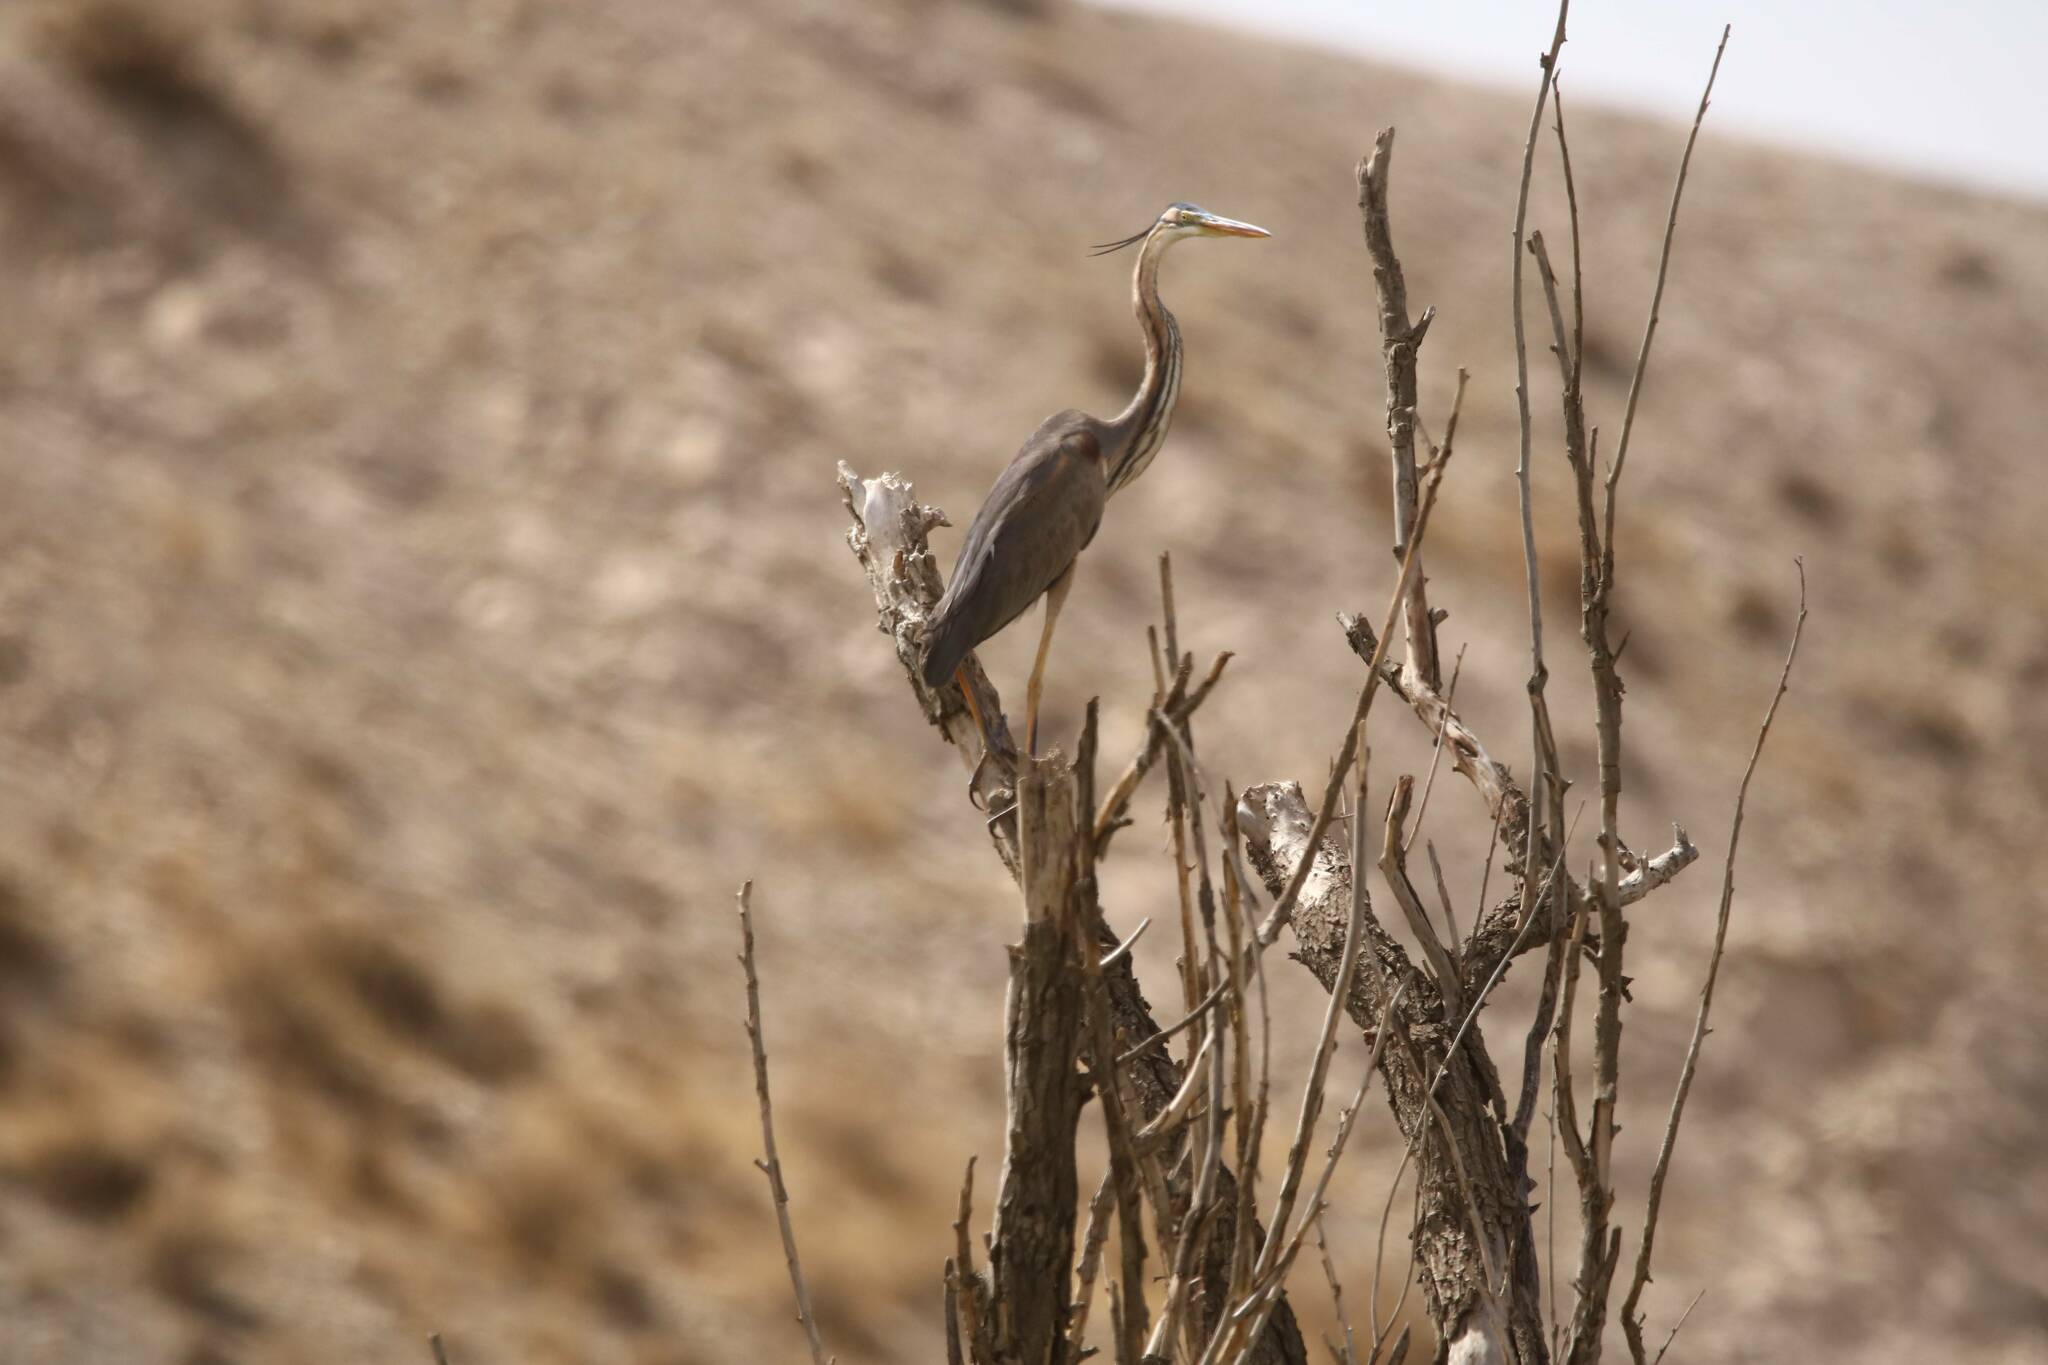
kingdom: Animalia
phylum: Chordata
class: Aves
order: Pelecaniformes
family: Ardeidae
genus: Ardea
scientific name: Ardea purpurea
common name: Purple heron
